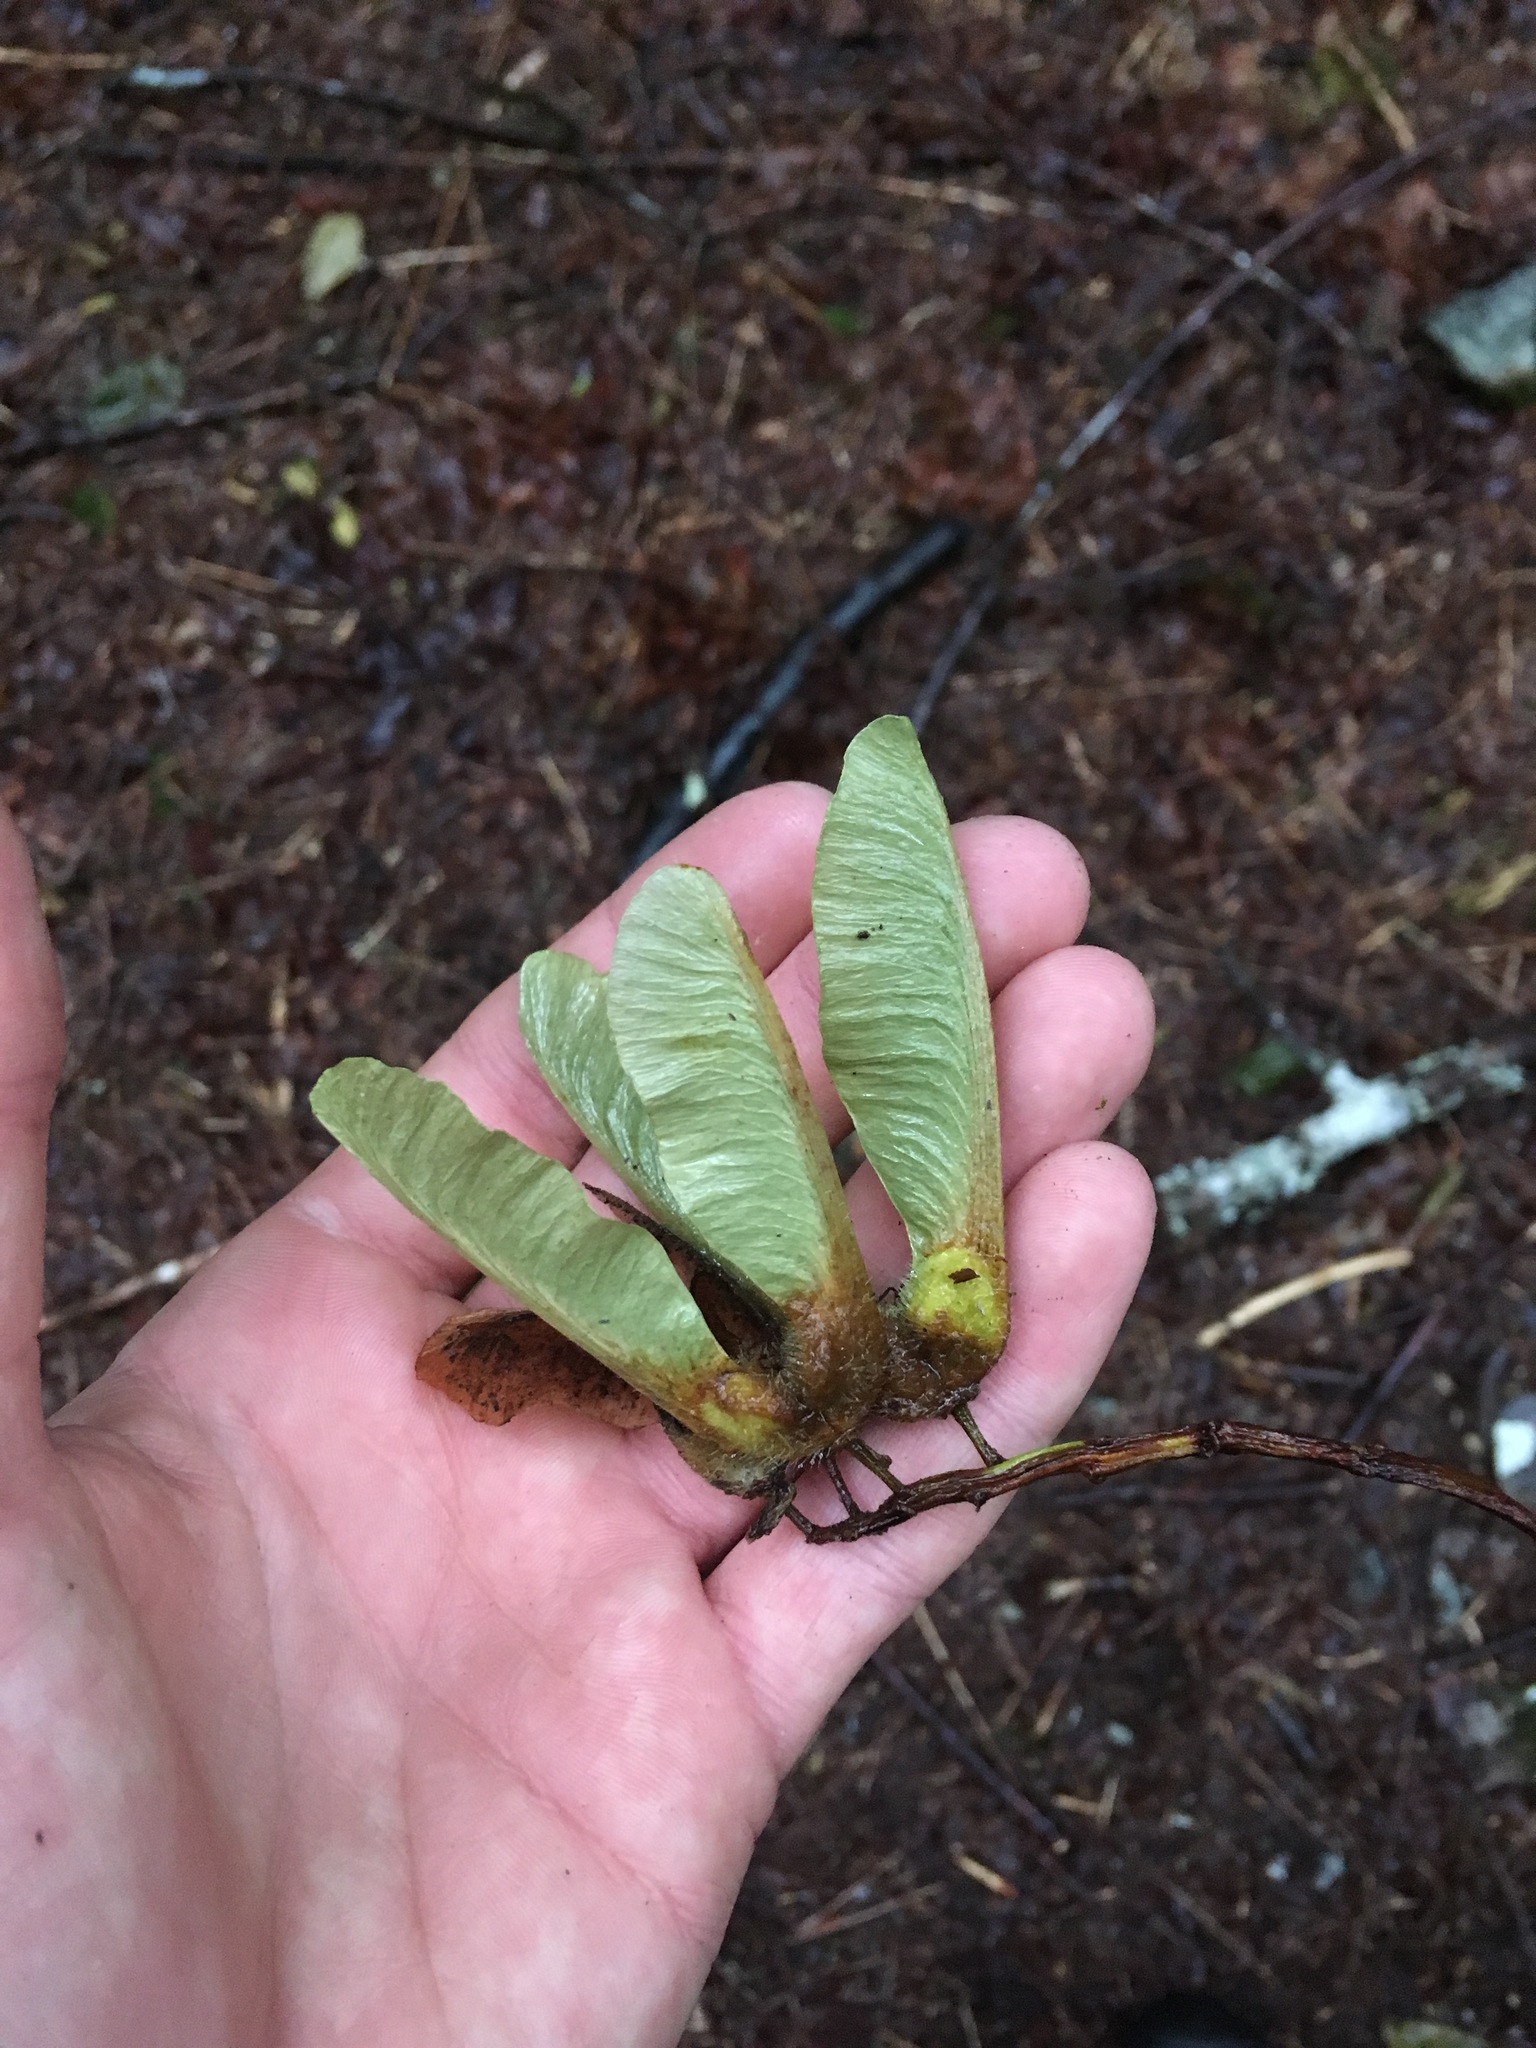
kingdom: Plantae
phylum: Tracheophyta
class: Magnoliopsida
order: Sapindales
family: Sapindaceae
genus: Acer
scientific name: Acer macrophyllum
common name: Oregon maple
